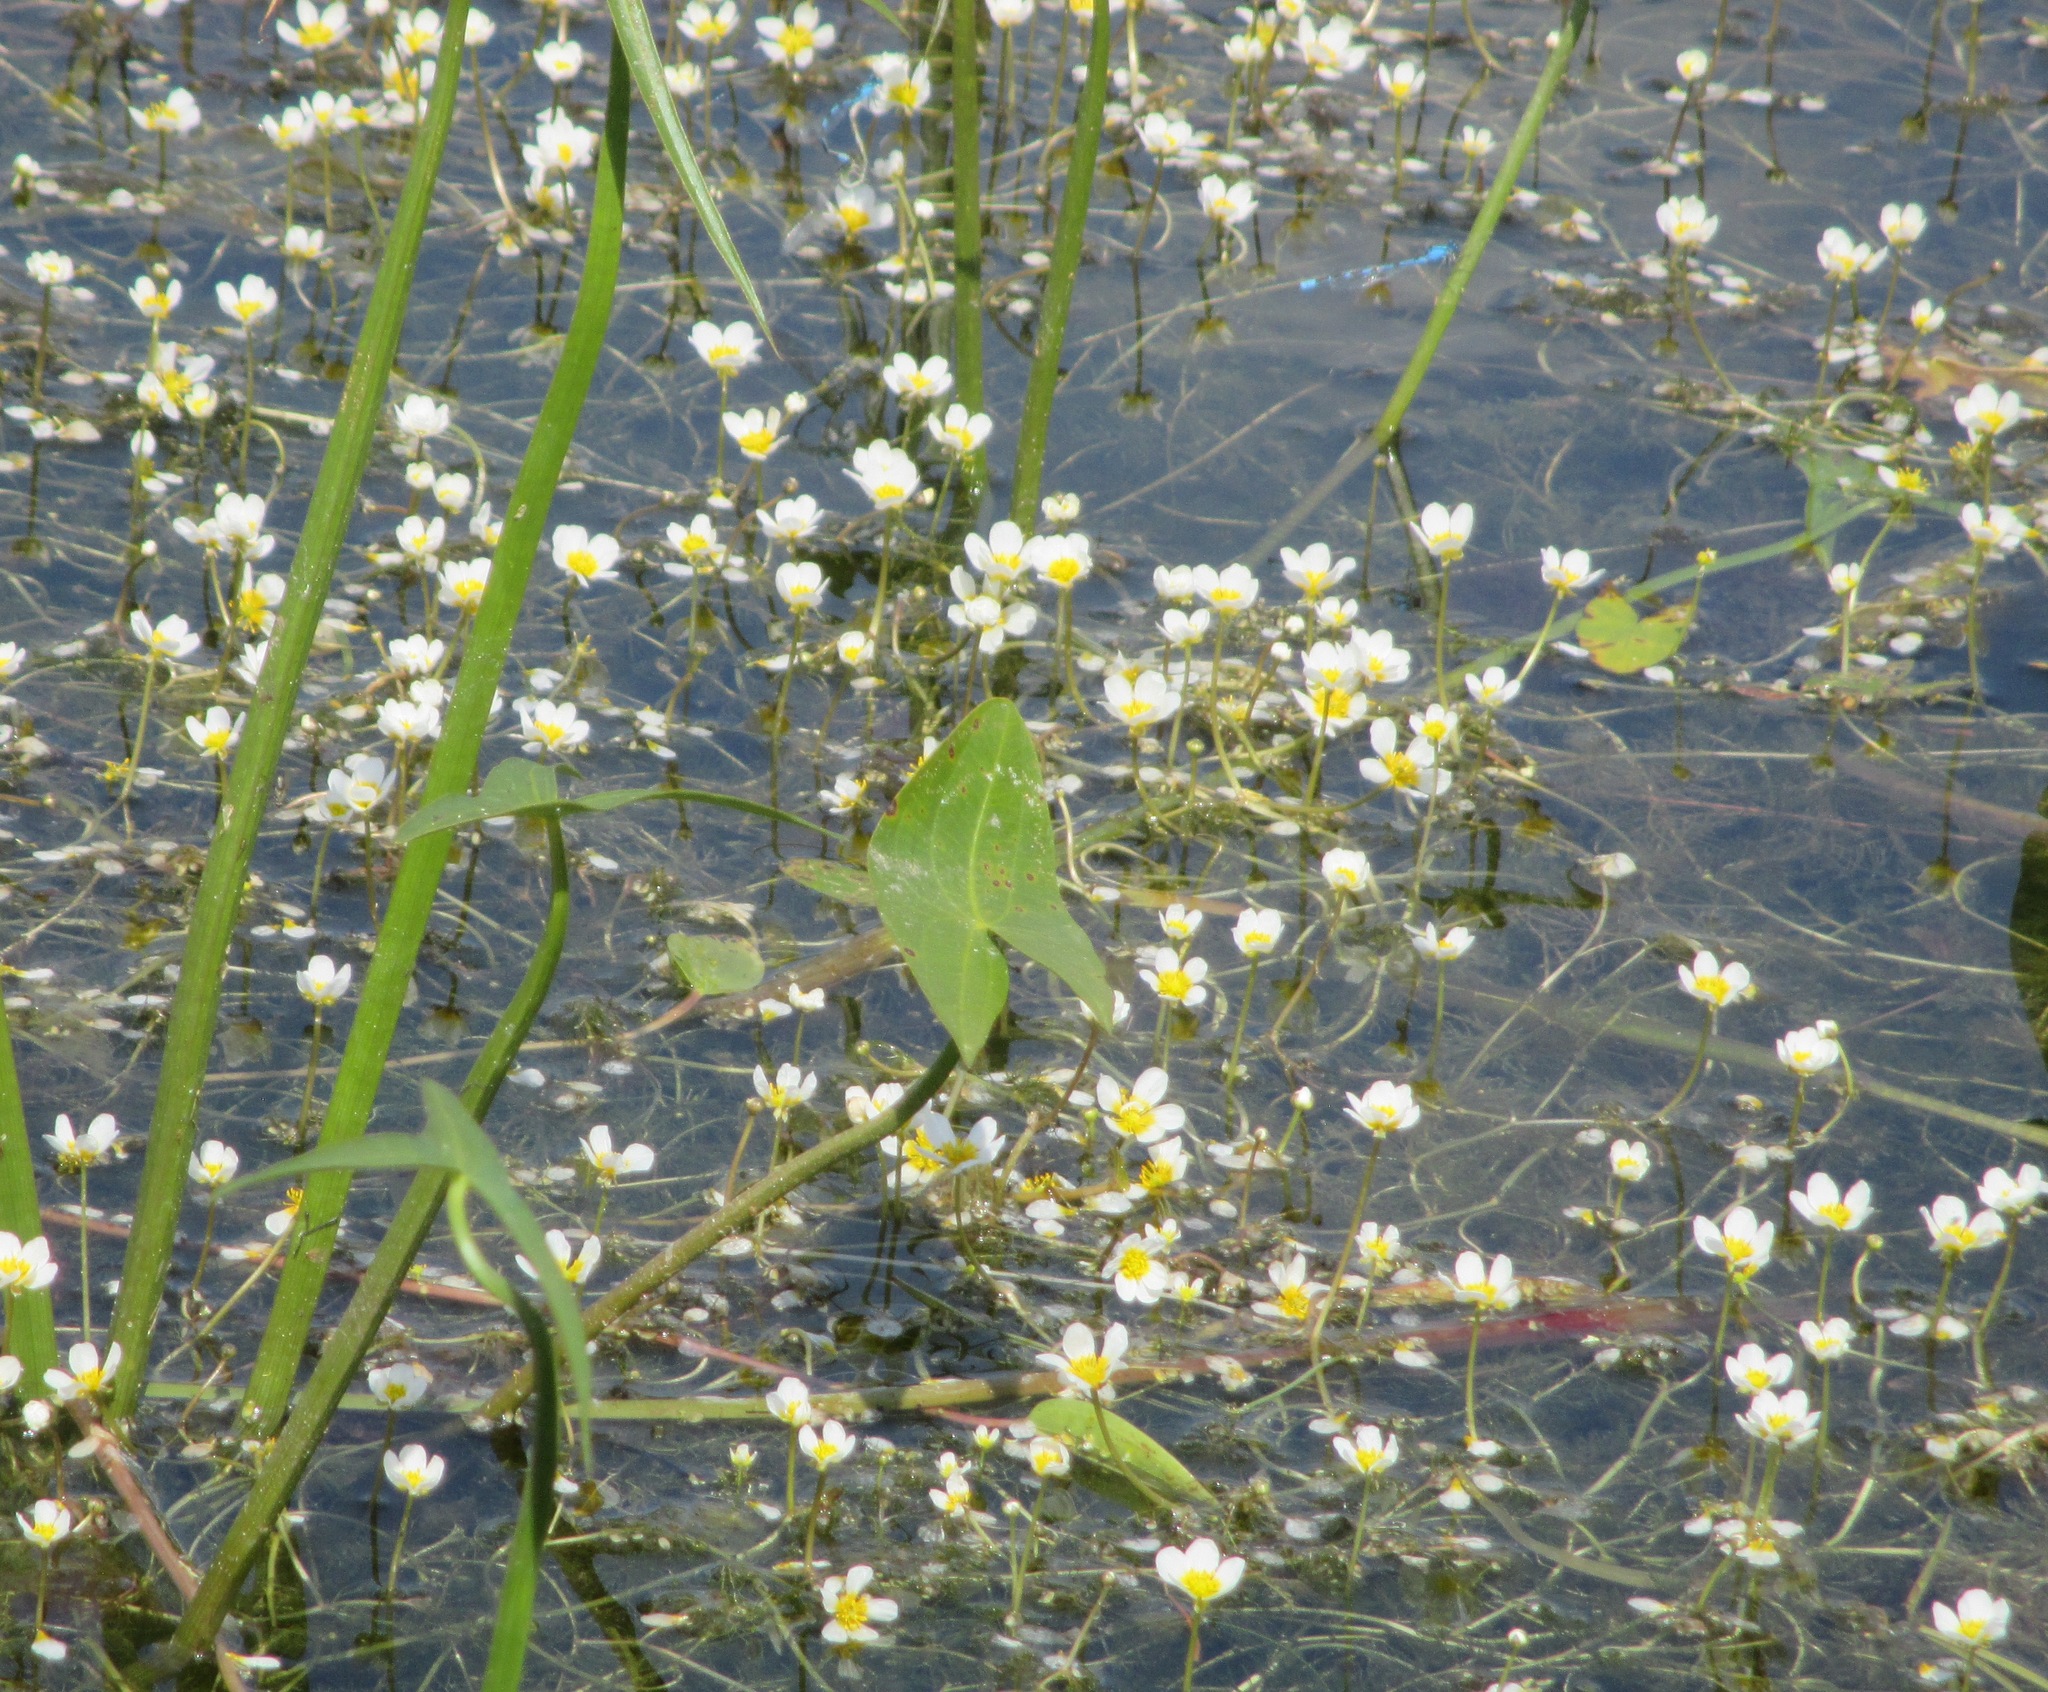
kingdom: Plantae
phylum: Tracheophyta
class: Magnoliopsida
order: Ranunculales
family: Ranunculaceae
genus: Ranunculus
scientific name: Ranunculus trichophyllus
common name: Thread-leaved water-crowfoot
